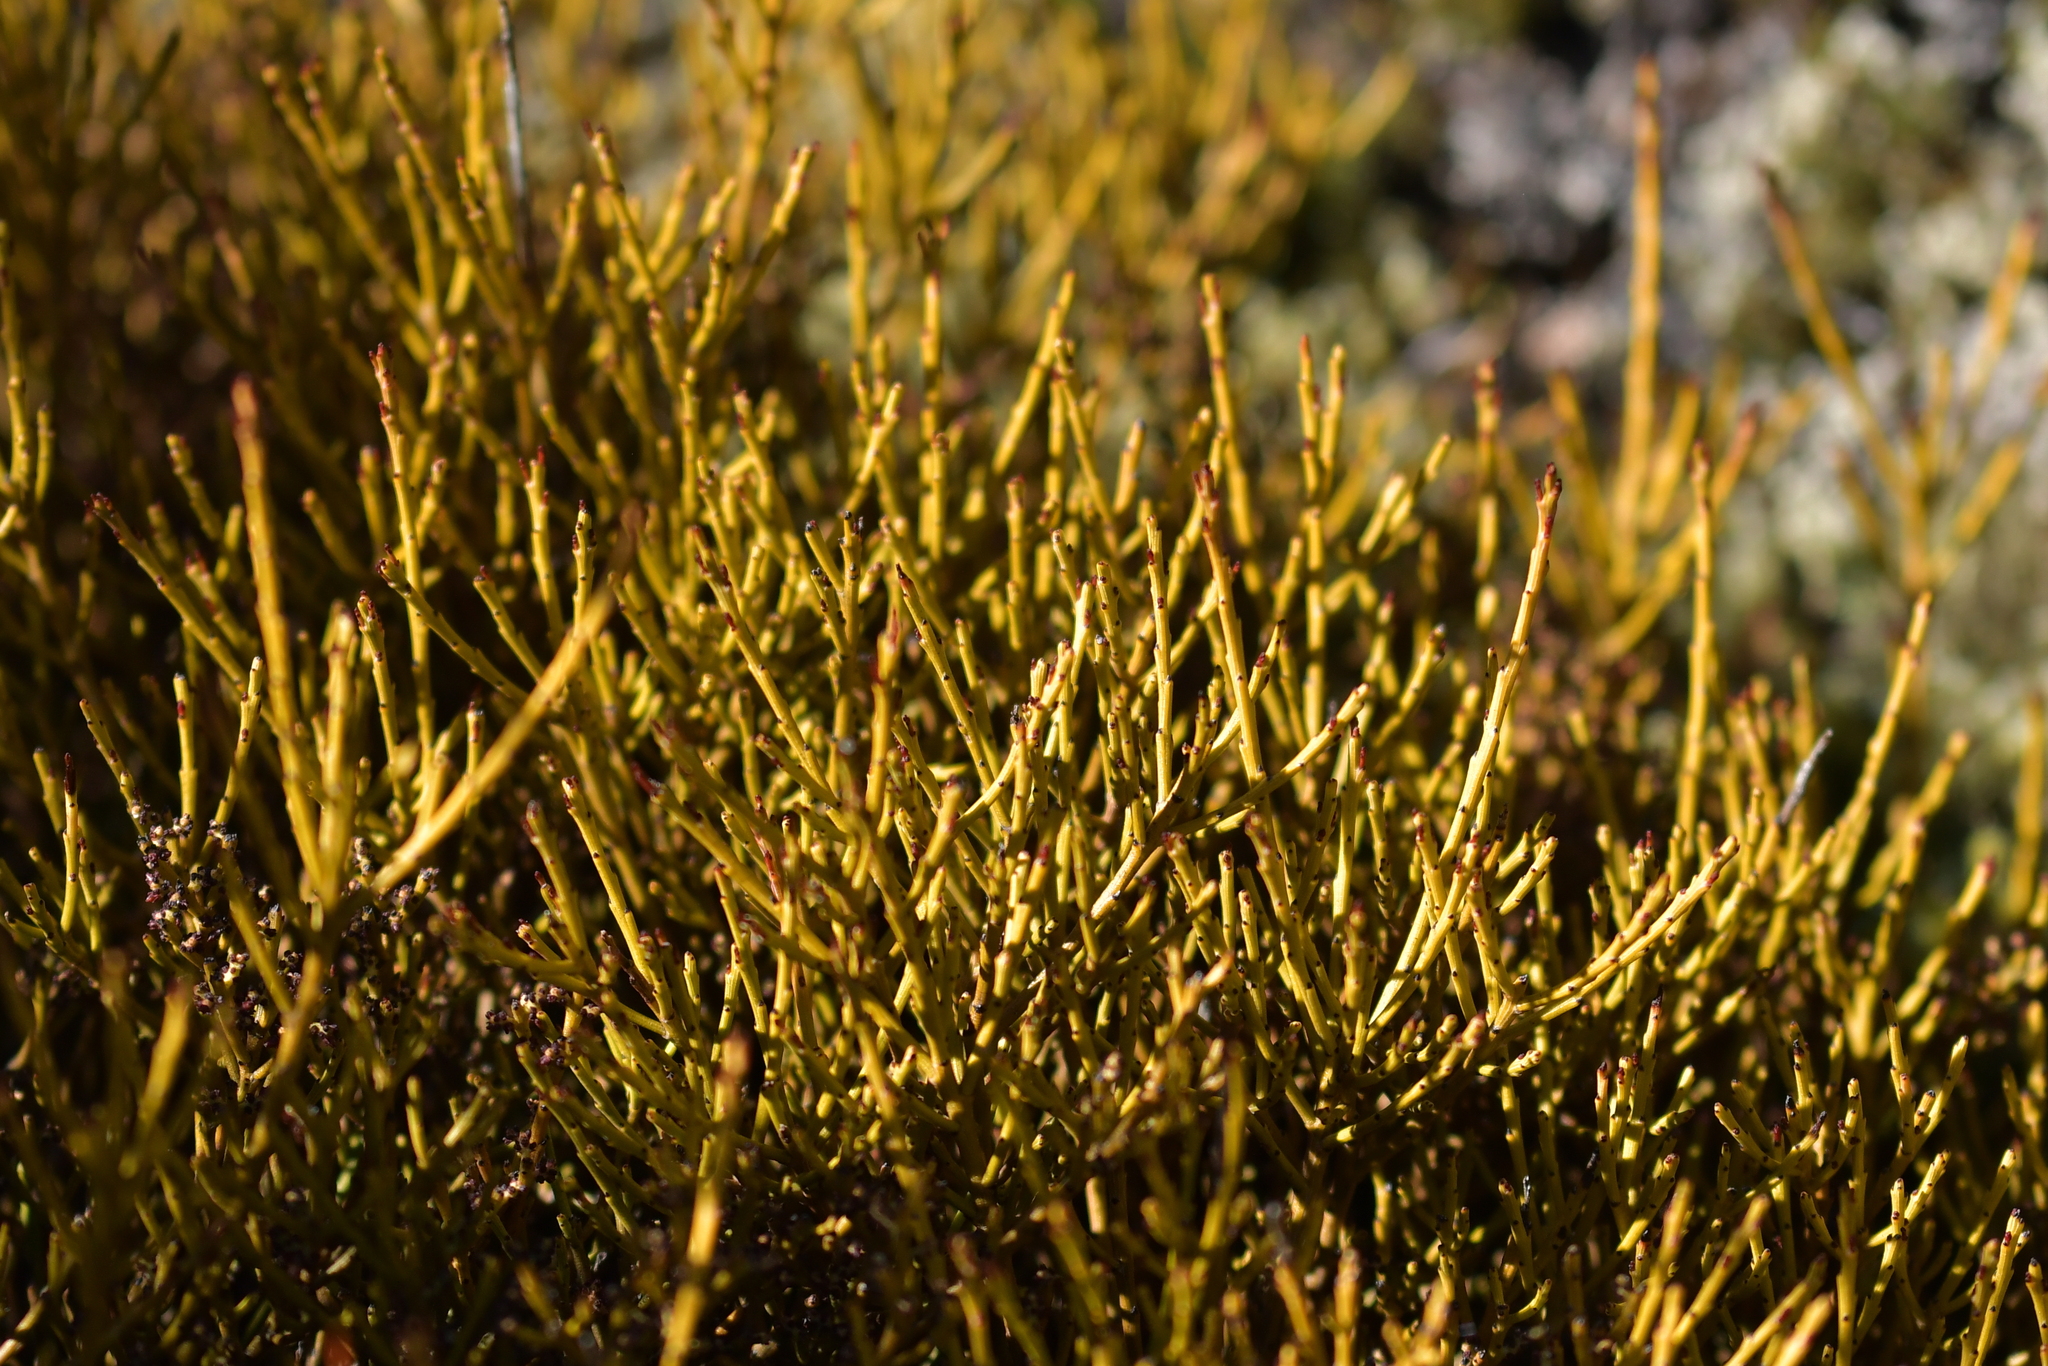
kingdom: Plantae
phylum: Tracheophyta
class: Magnoliopsida
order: Santalales
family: Santalaceae
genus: Exocarpos
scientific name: Exocarpos bidwillii
